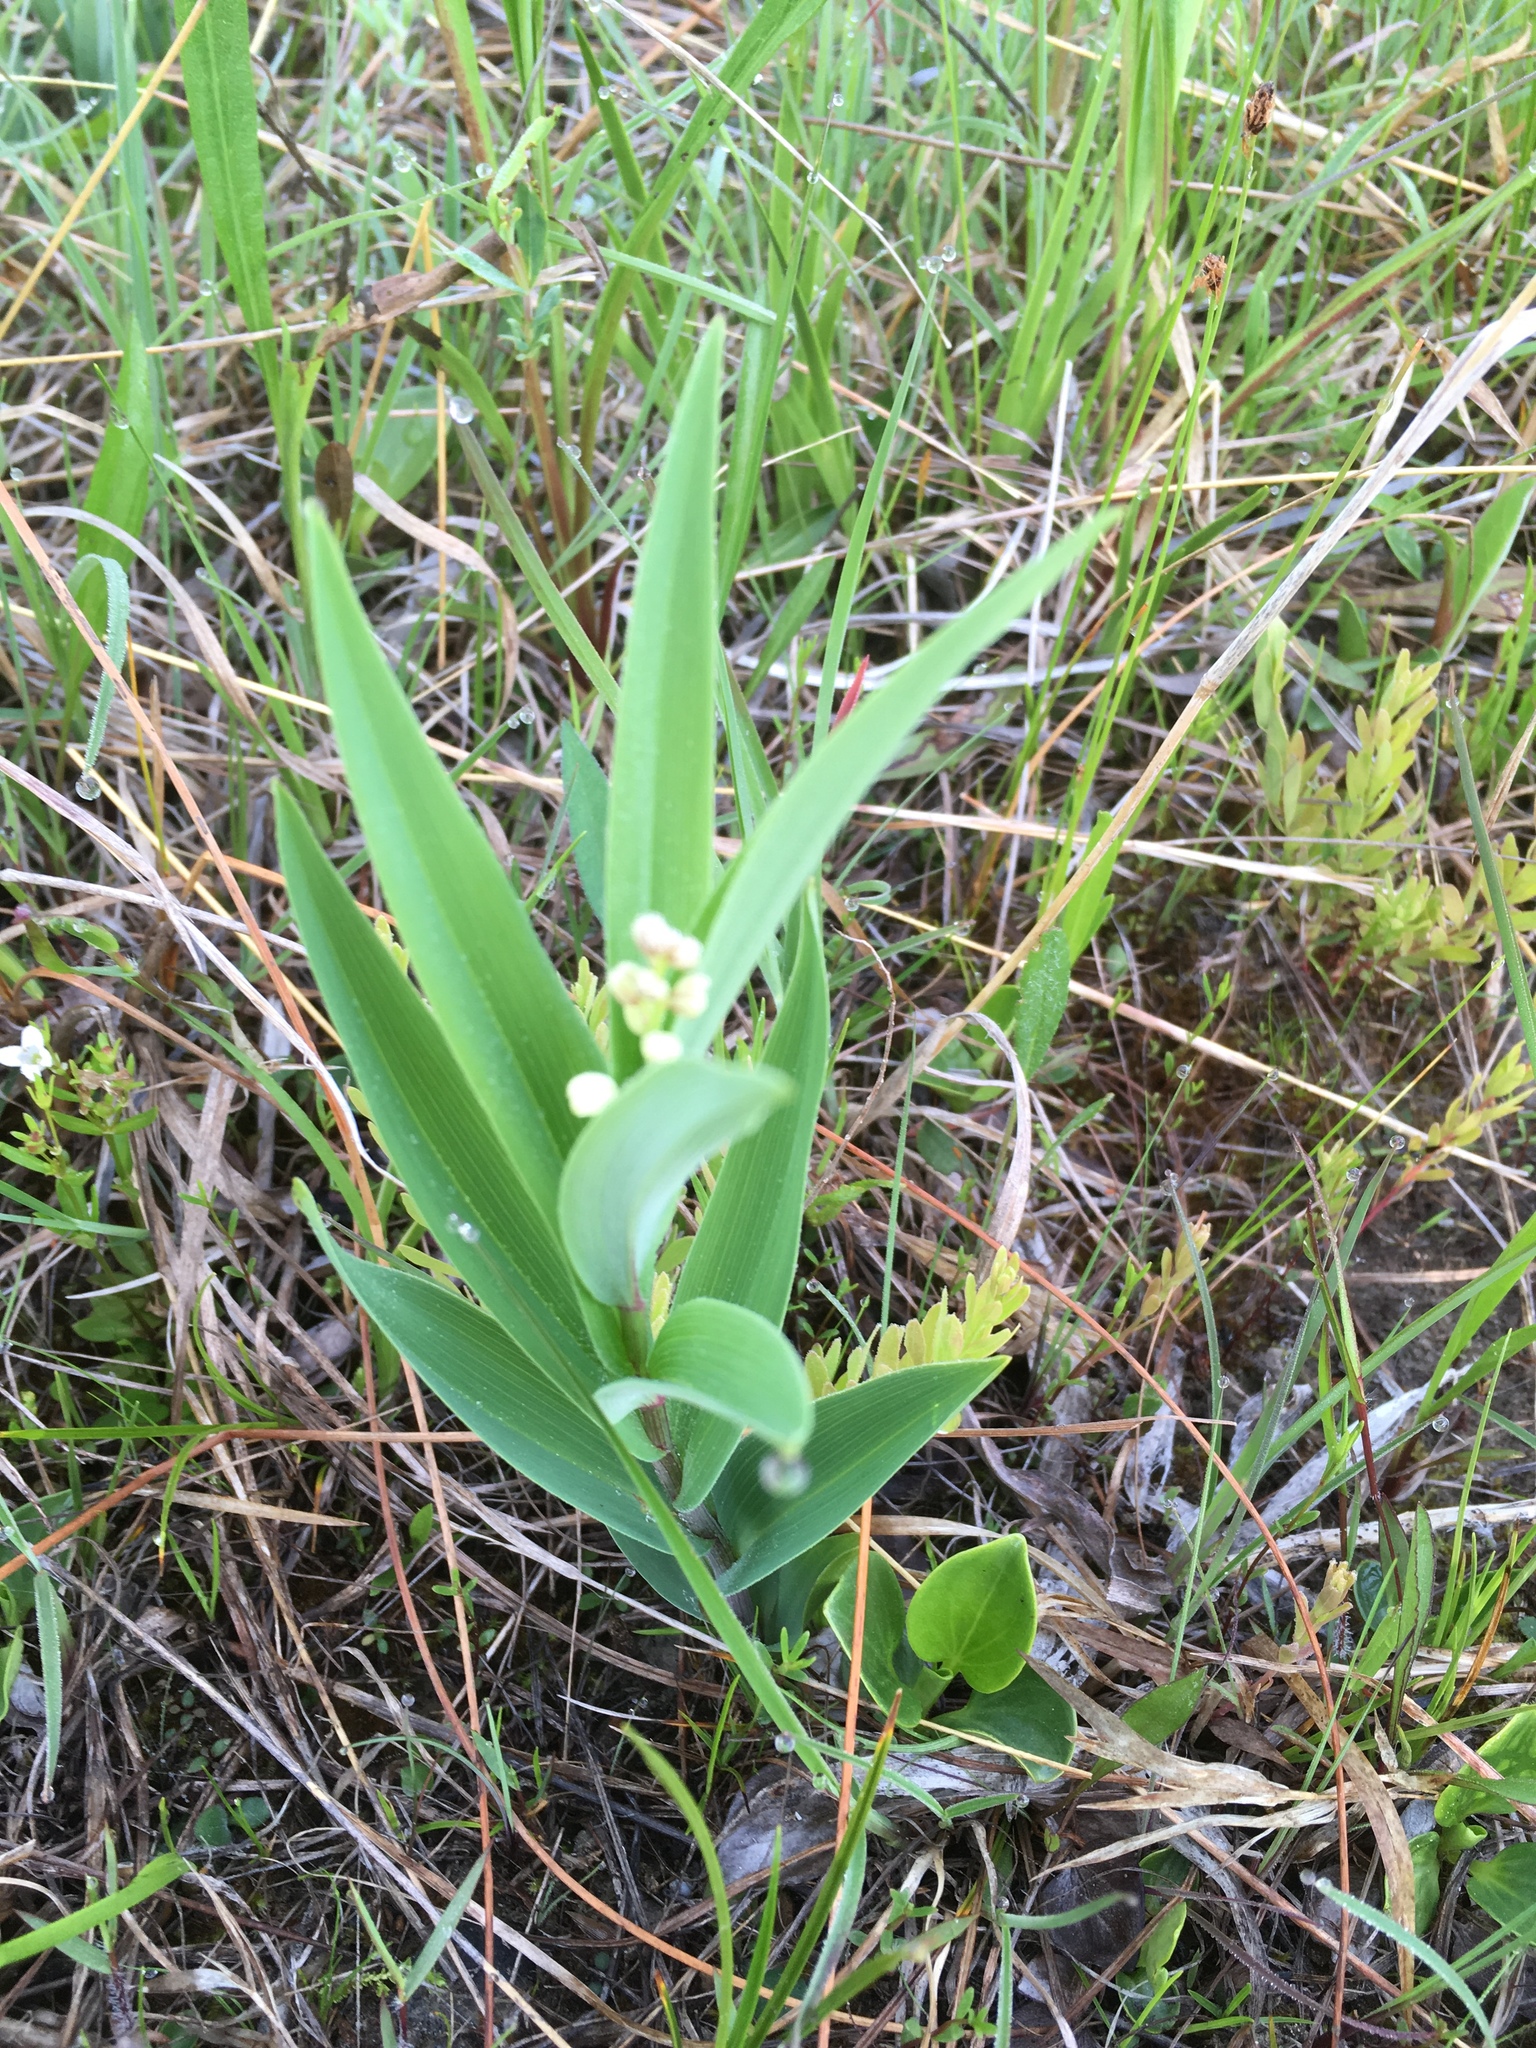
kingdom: Plantae
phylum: Tracheophyta
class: Liliopsida
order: Asparagales
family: Asparagaceae
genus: Maianthemum
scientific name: Maianthemum stellatum
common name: Little false solomon's seal
